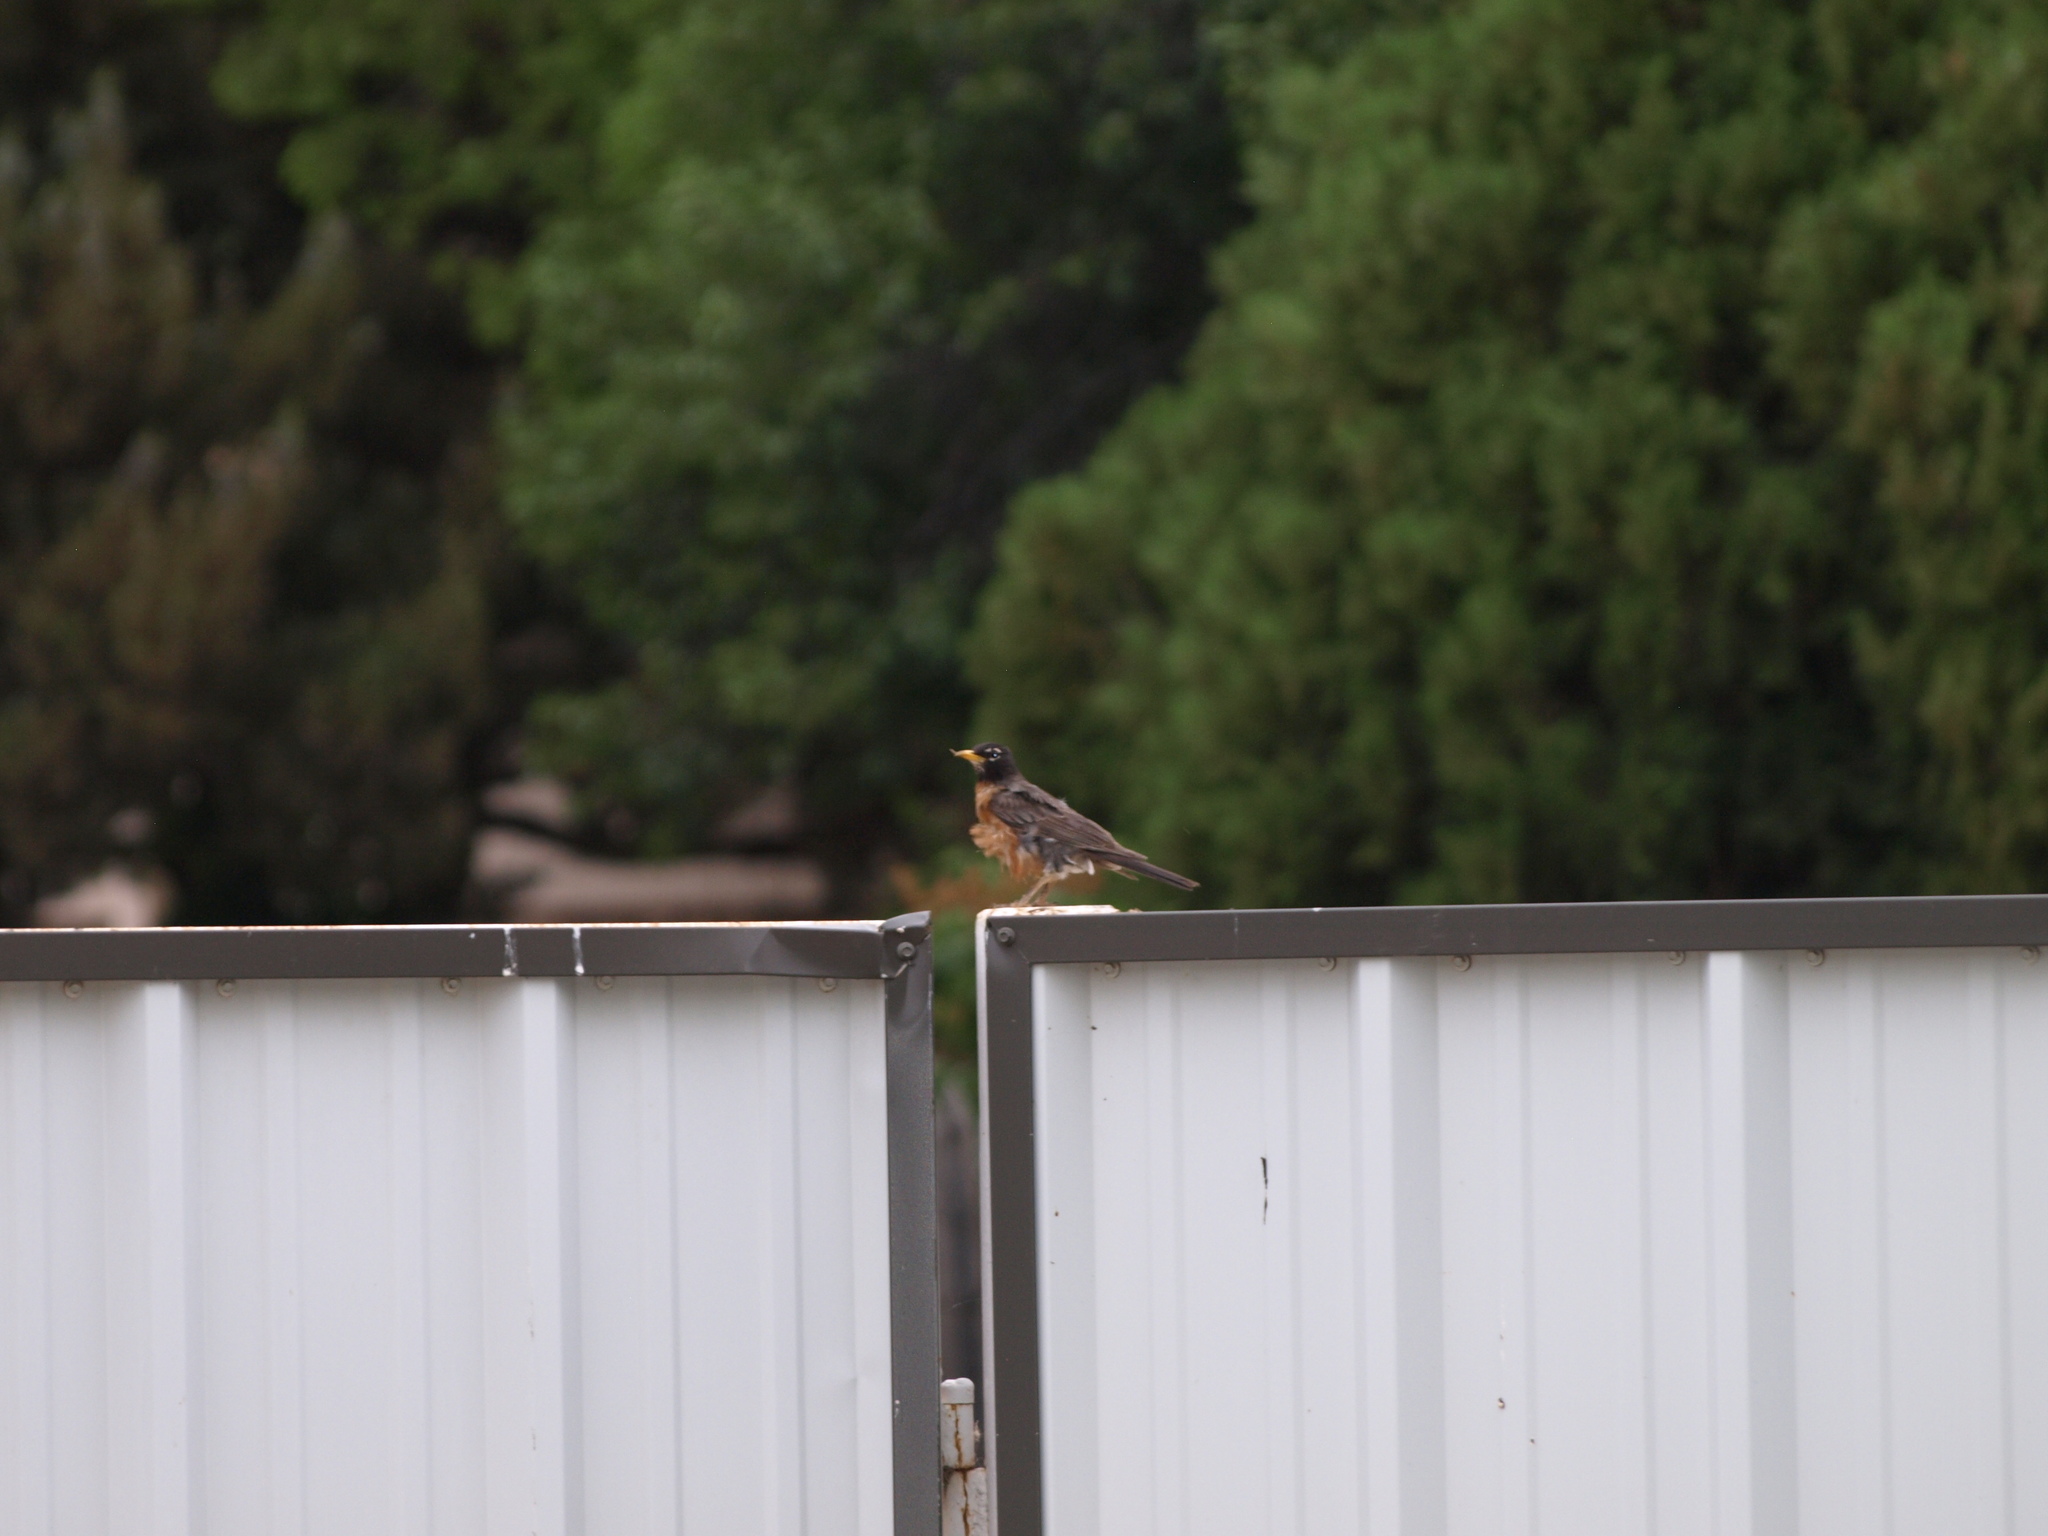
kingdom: Animalia
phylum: Chordata
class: Aves
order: Passeriformes
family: Turdidae
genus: Turdus
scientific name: Turdus migratorius
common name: American robin
